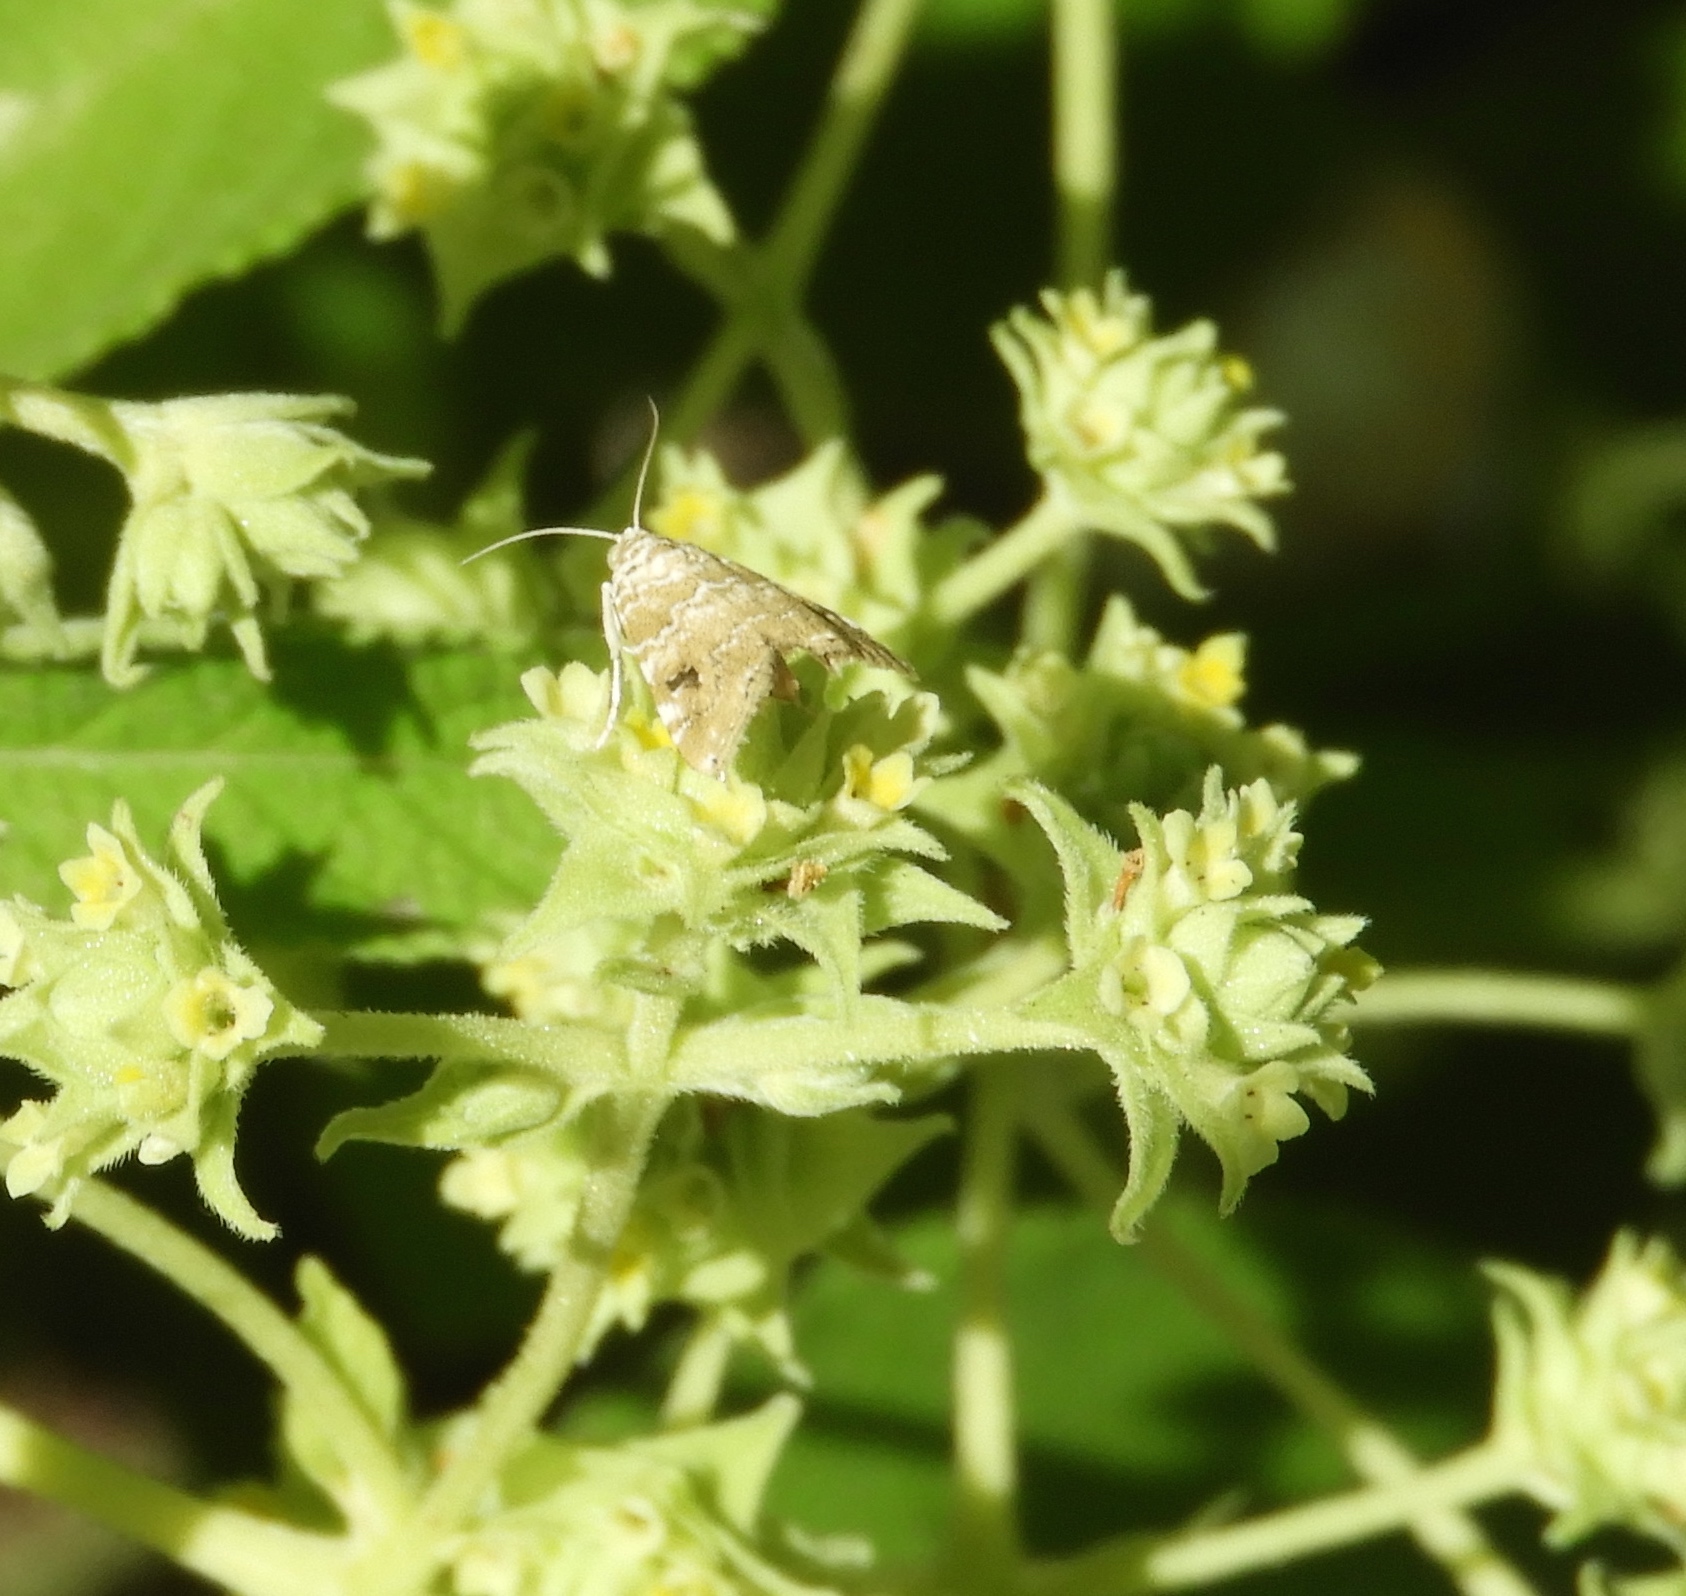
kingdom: Animalia
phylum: Arthropoda
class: Insecta
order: Lepidoptera
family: Crambidae
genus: Hellula
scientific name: Hellula rogatalis
